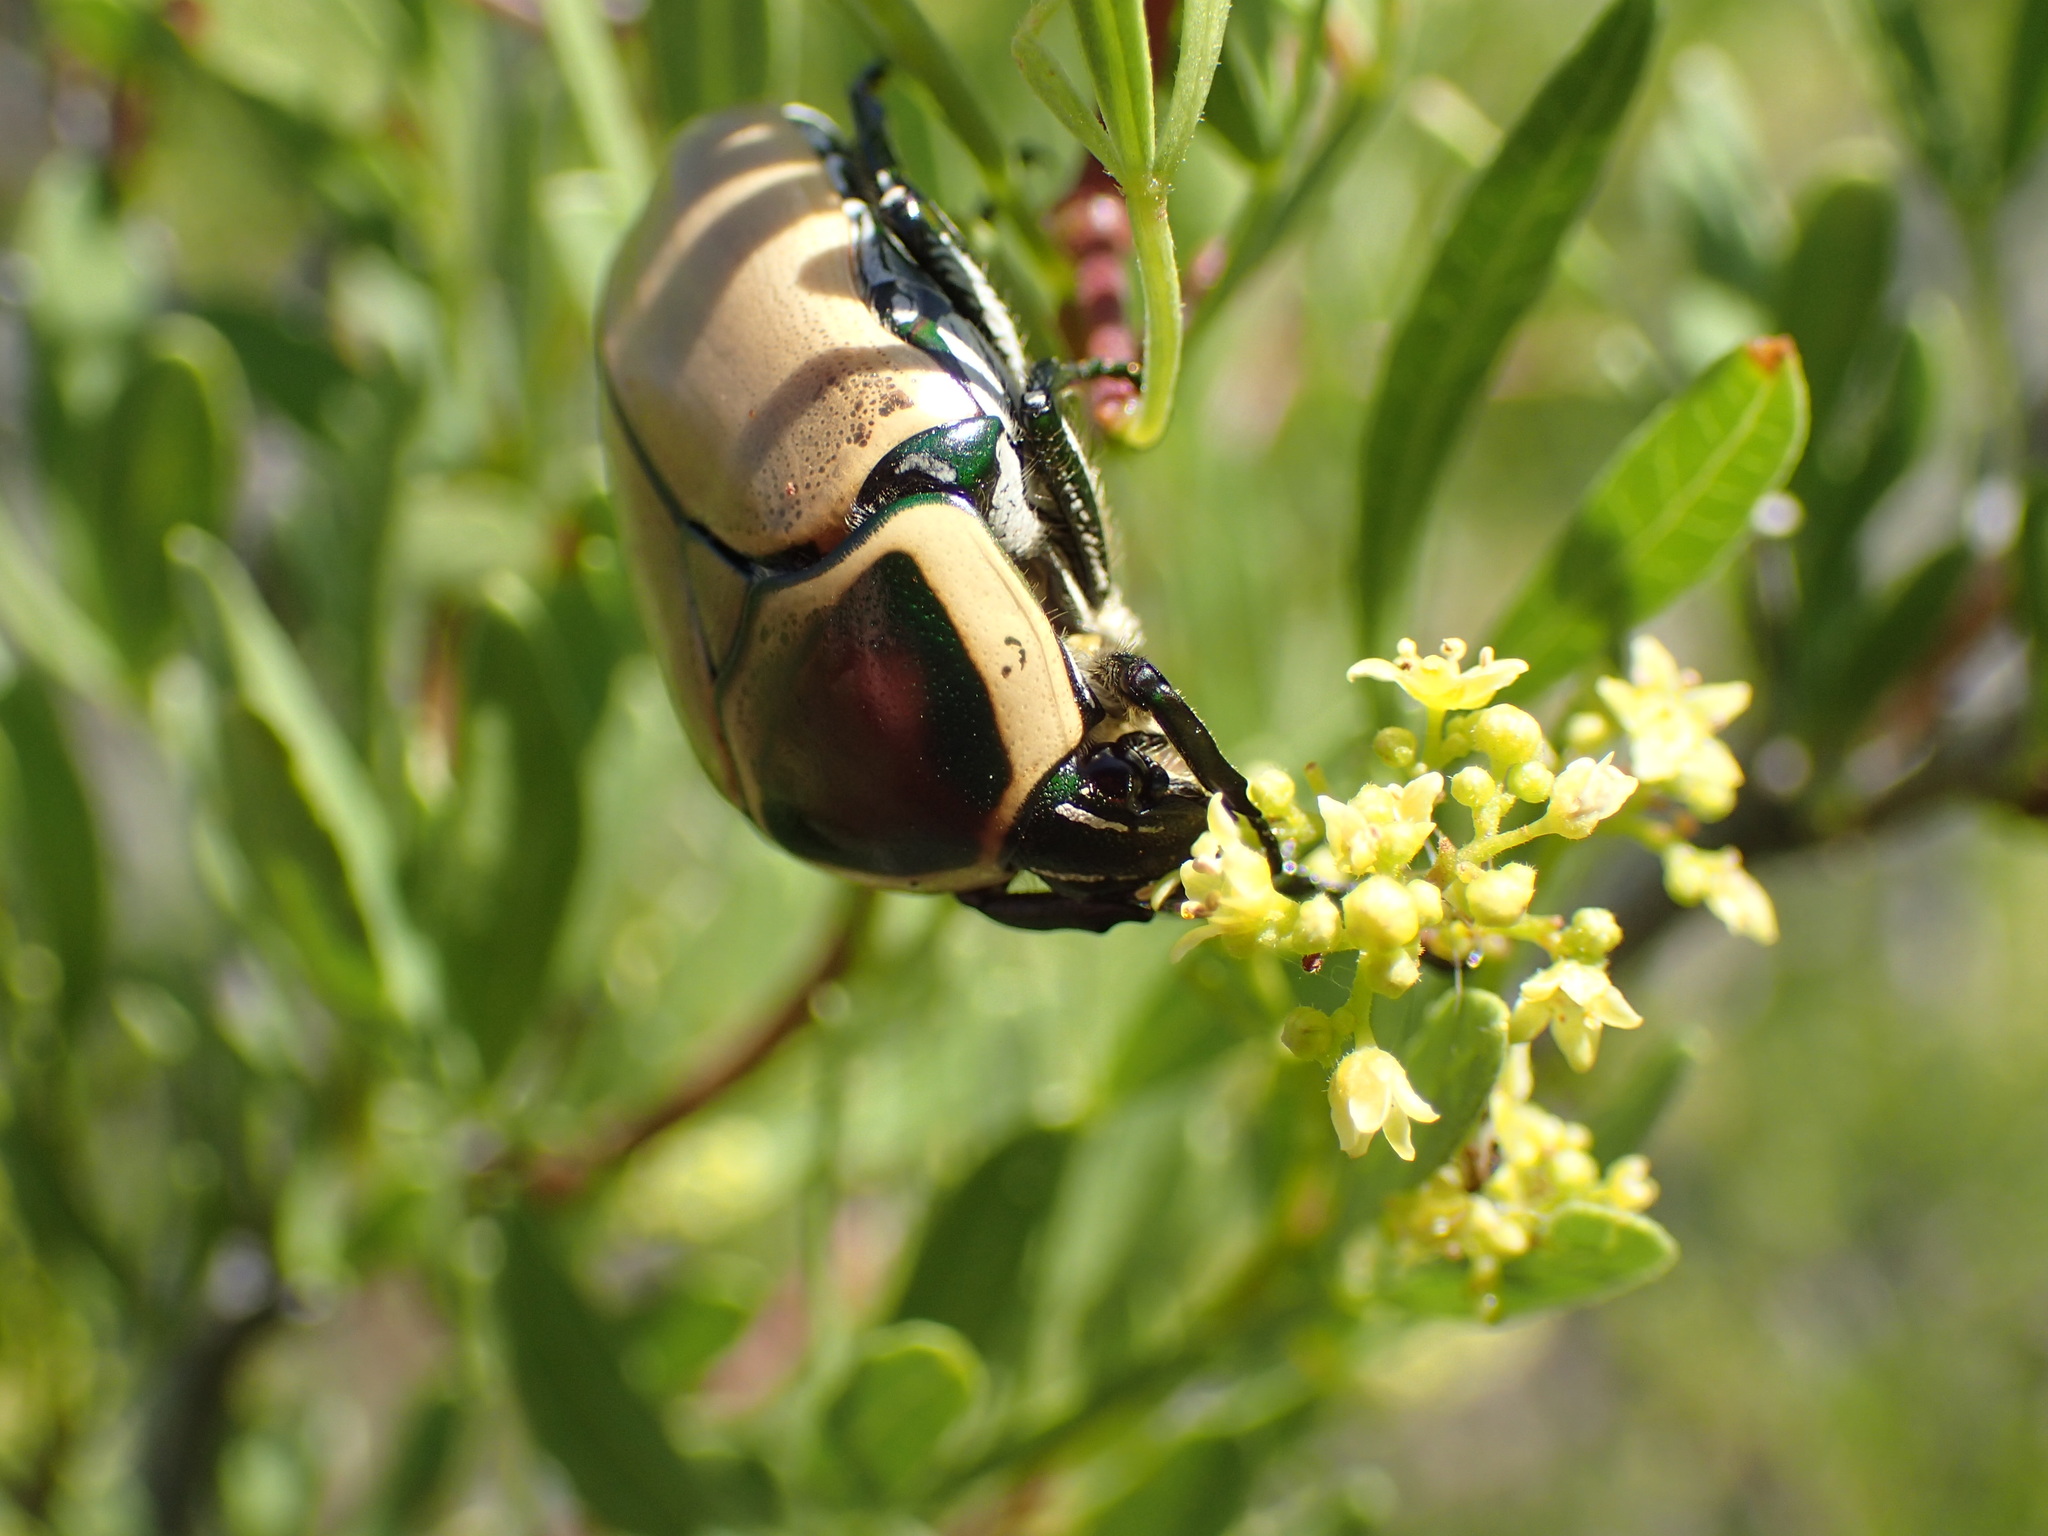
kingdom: Animalia
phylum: Arthropoda
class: Insecta
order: Coleoptera
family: Scarabaeidae
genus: Dischista
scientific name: Dischista cincta
